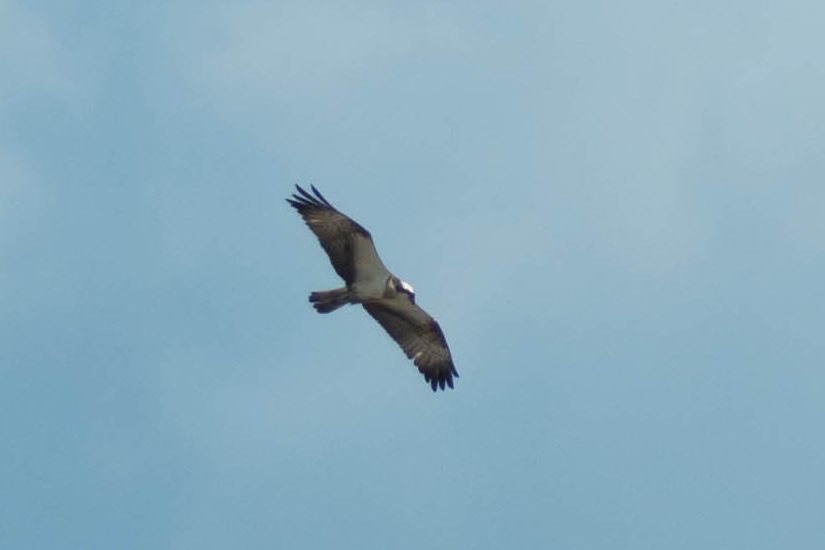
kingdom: Animalia
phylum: Chordata
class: Aves
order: Accipitriformes
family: Pandionidae
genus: Pandion
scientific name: Pandion haliaetus
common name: Osprey
